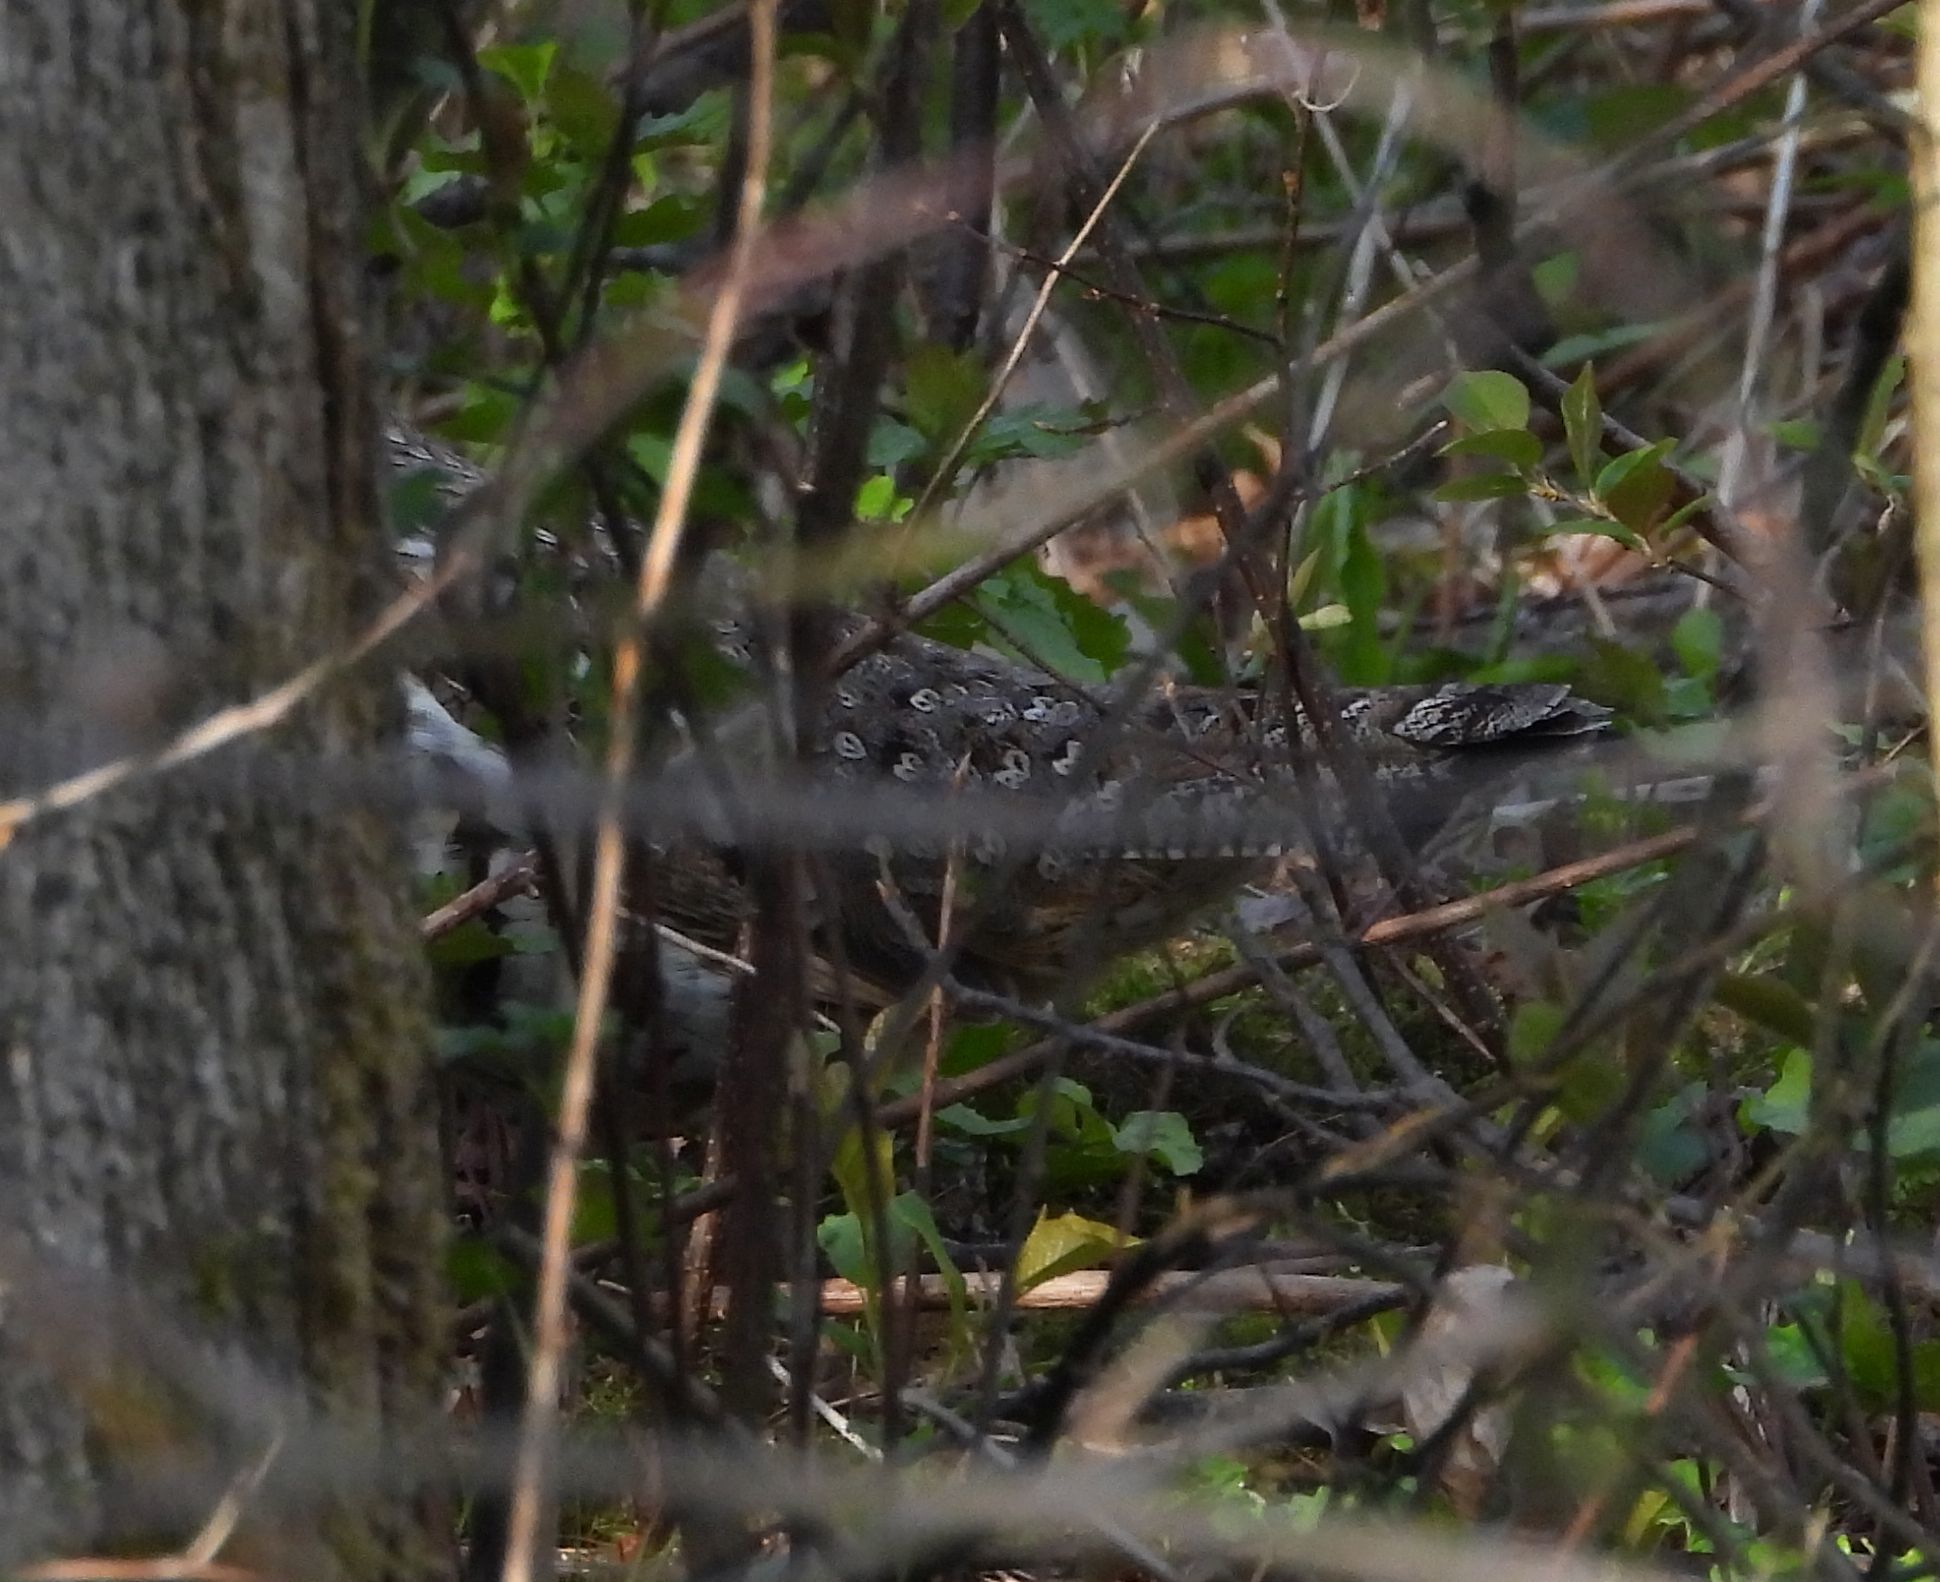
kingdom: Animalia
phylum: Chordata
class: Aves
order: Galliformes
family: Phasianidae
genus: Bonasa
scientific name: Bonasa umbellus
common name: Ruffed grouse
